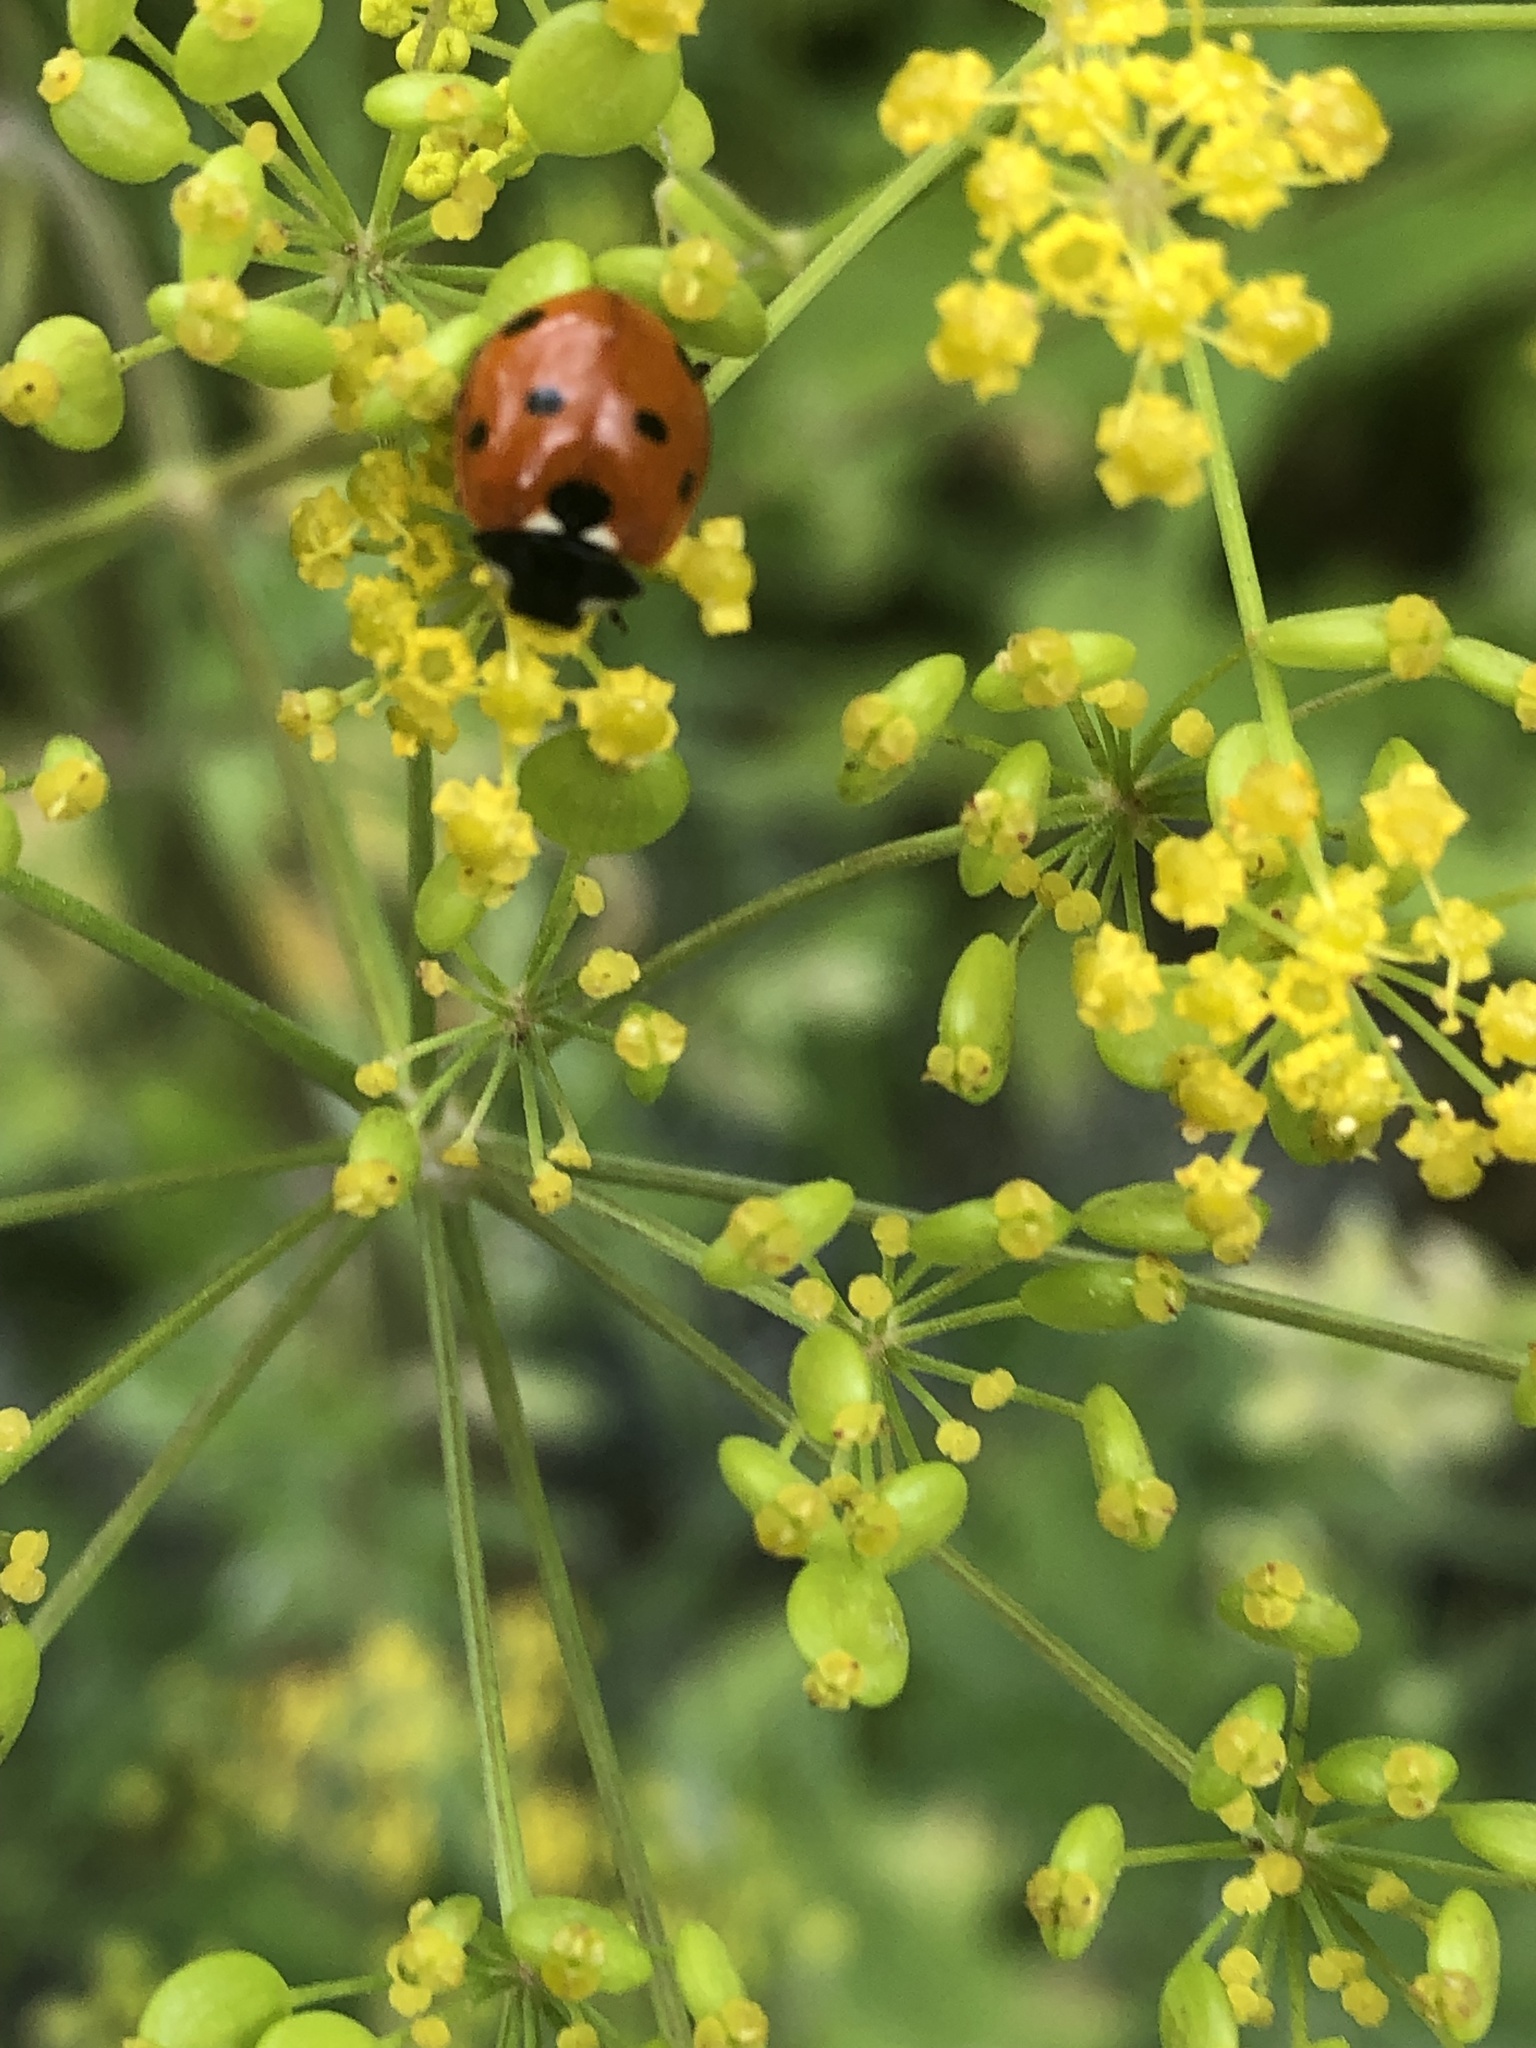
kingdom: Animalia
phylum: Arthropoda
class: Insecta
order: Coleoptera
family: Coccinellidae
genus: Coccinella
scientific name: Coccinella septempunctata
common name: Sevenspotted lady beetle
